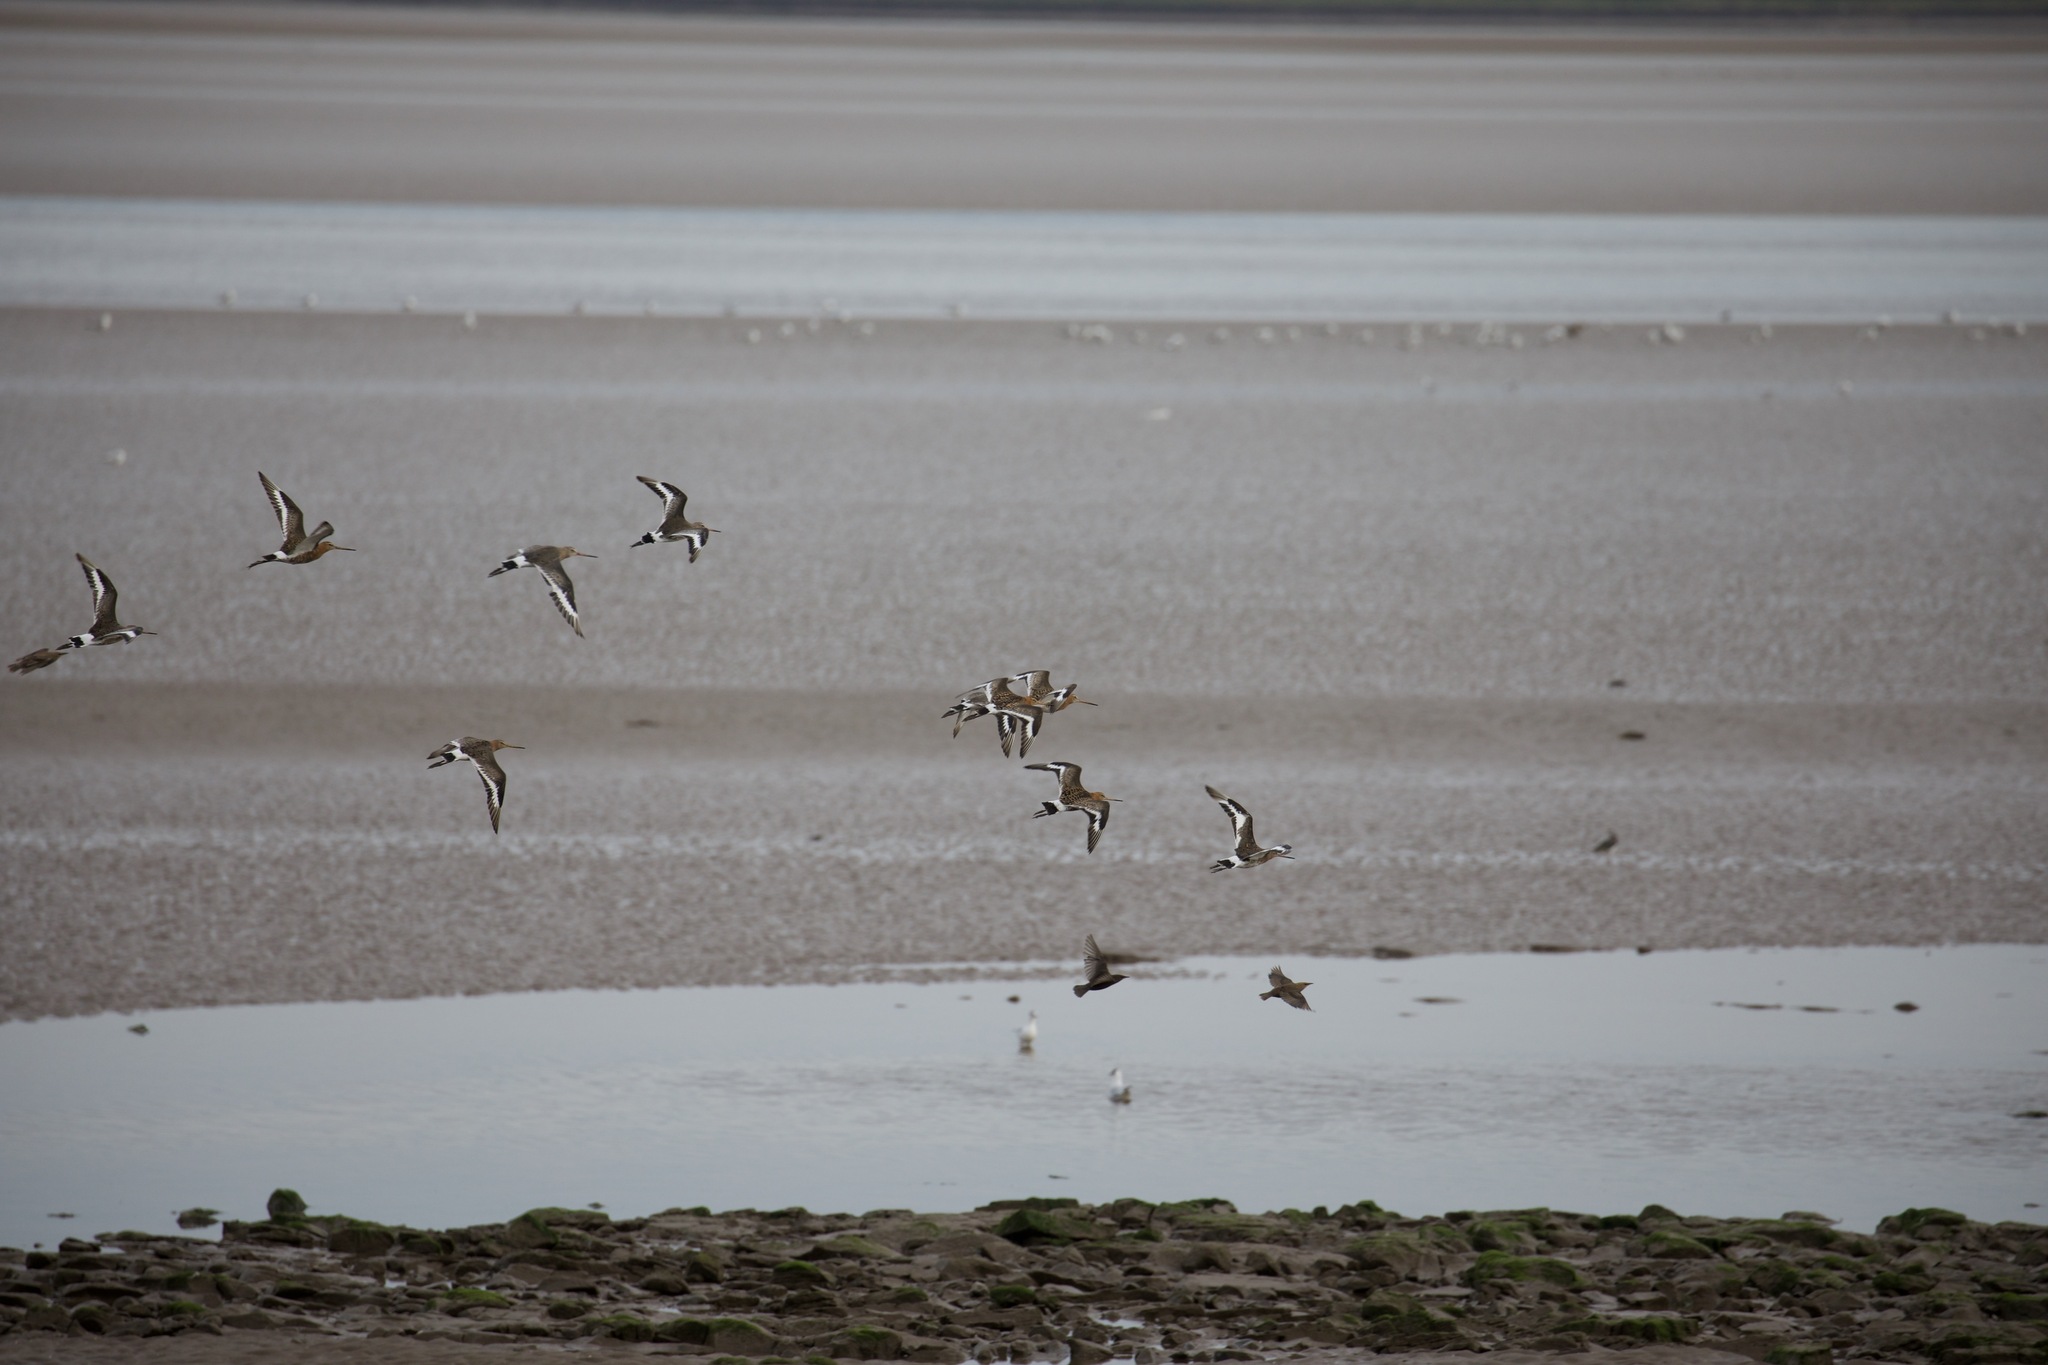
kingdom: Animalia
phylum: Chordata
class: Aves
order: Charadriiformes
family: Scolopacidae
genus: Limosa
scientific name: Limosa limosa
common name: Black-tailed godwit
